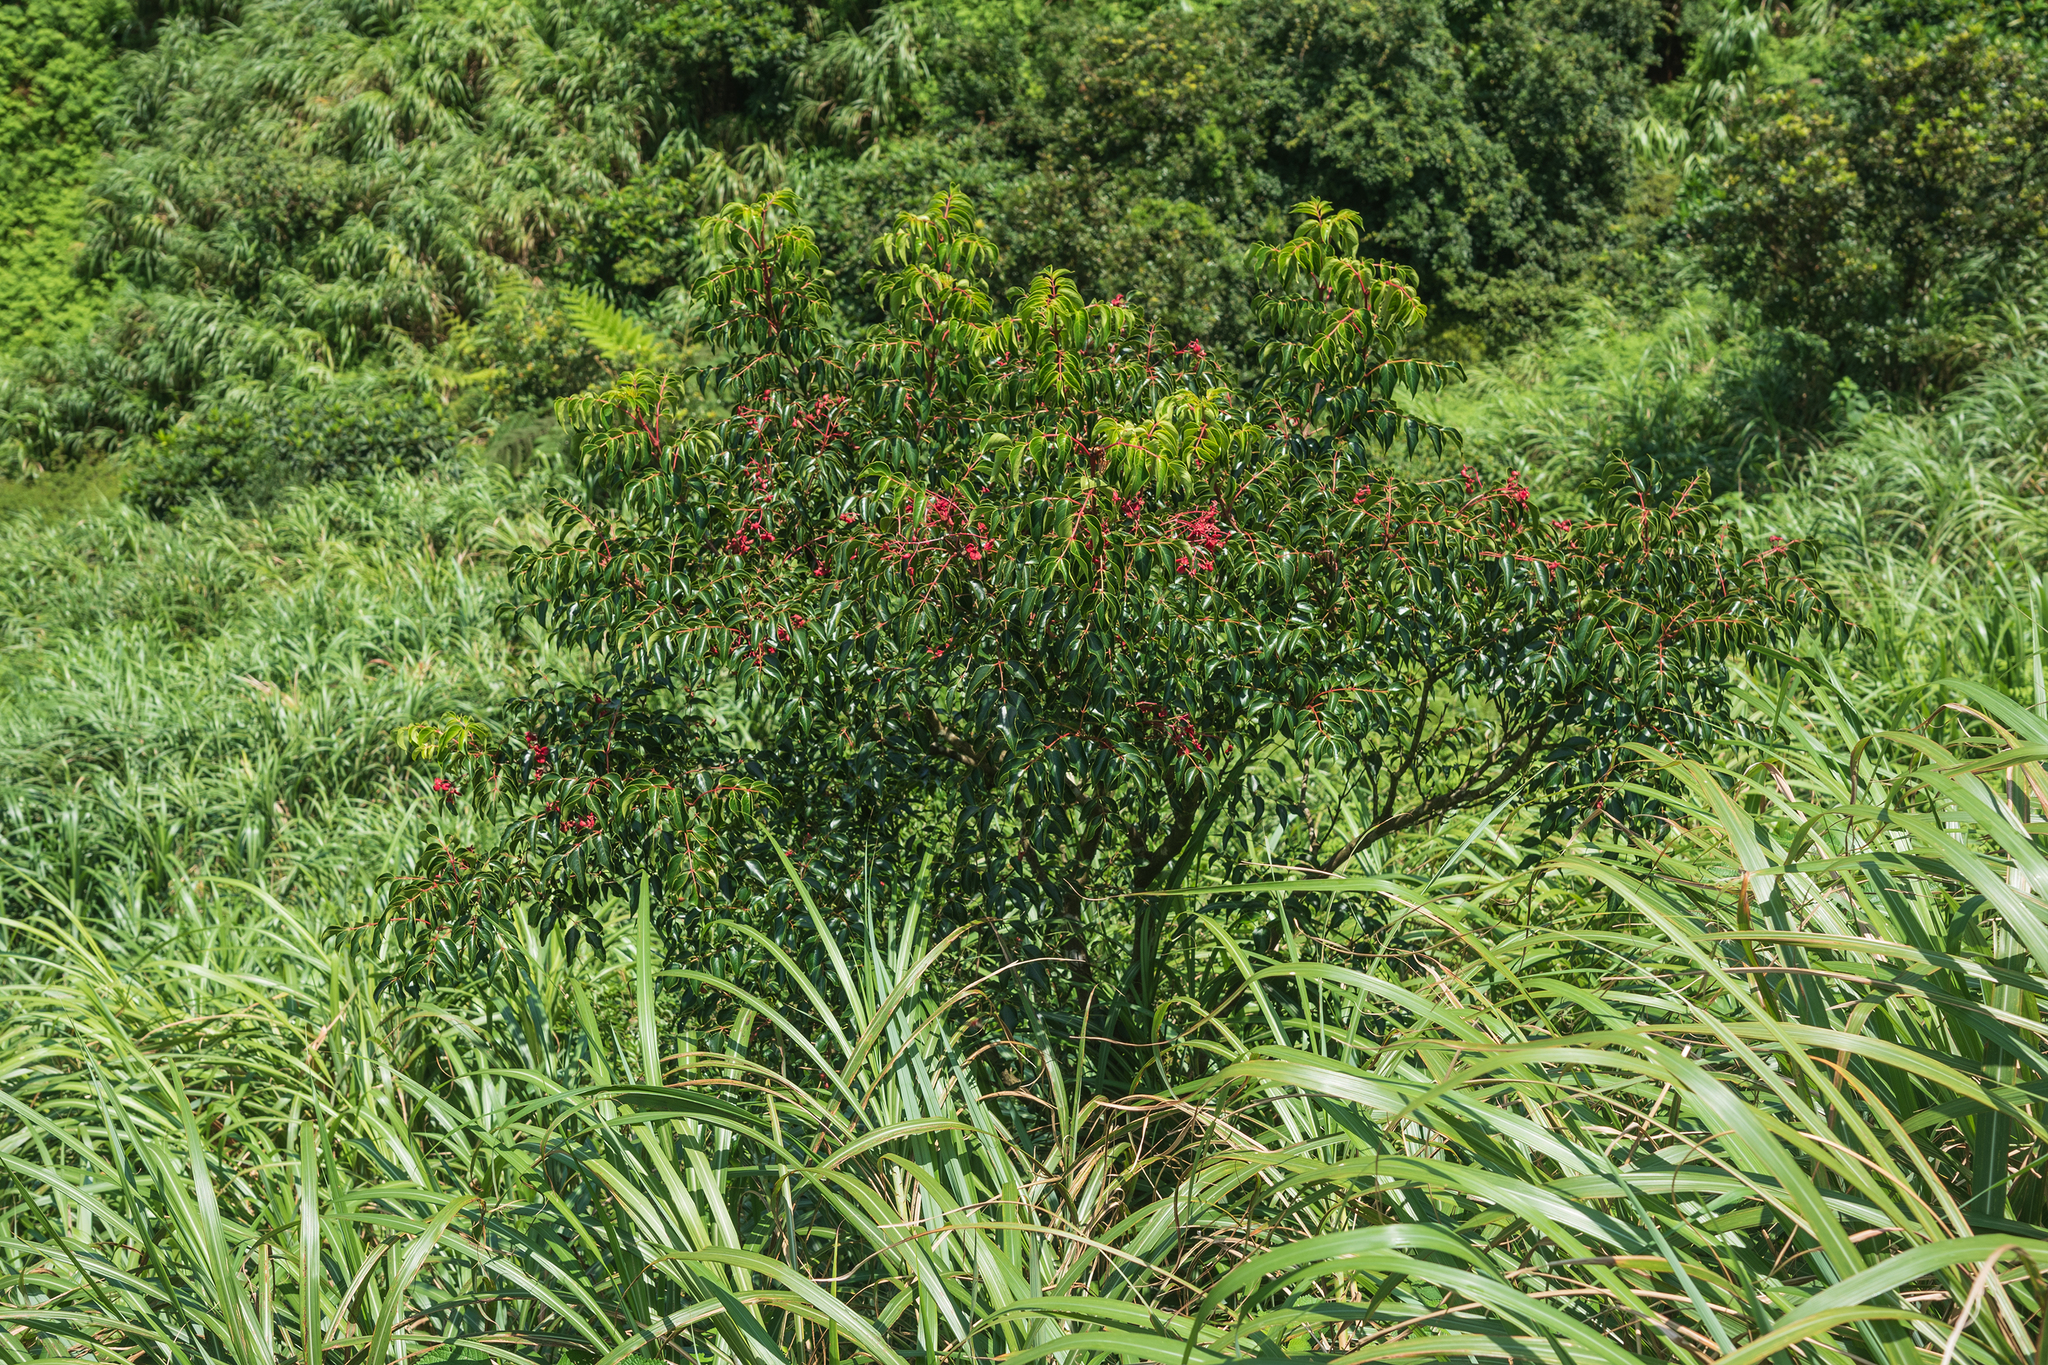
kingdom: Plantae
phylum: Tracheophyta
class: Magnoliopsida
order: Crossosomatales
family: Staphyleaceae
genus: Staphylea
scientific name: Staphylea japonica
